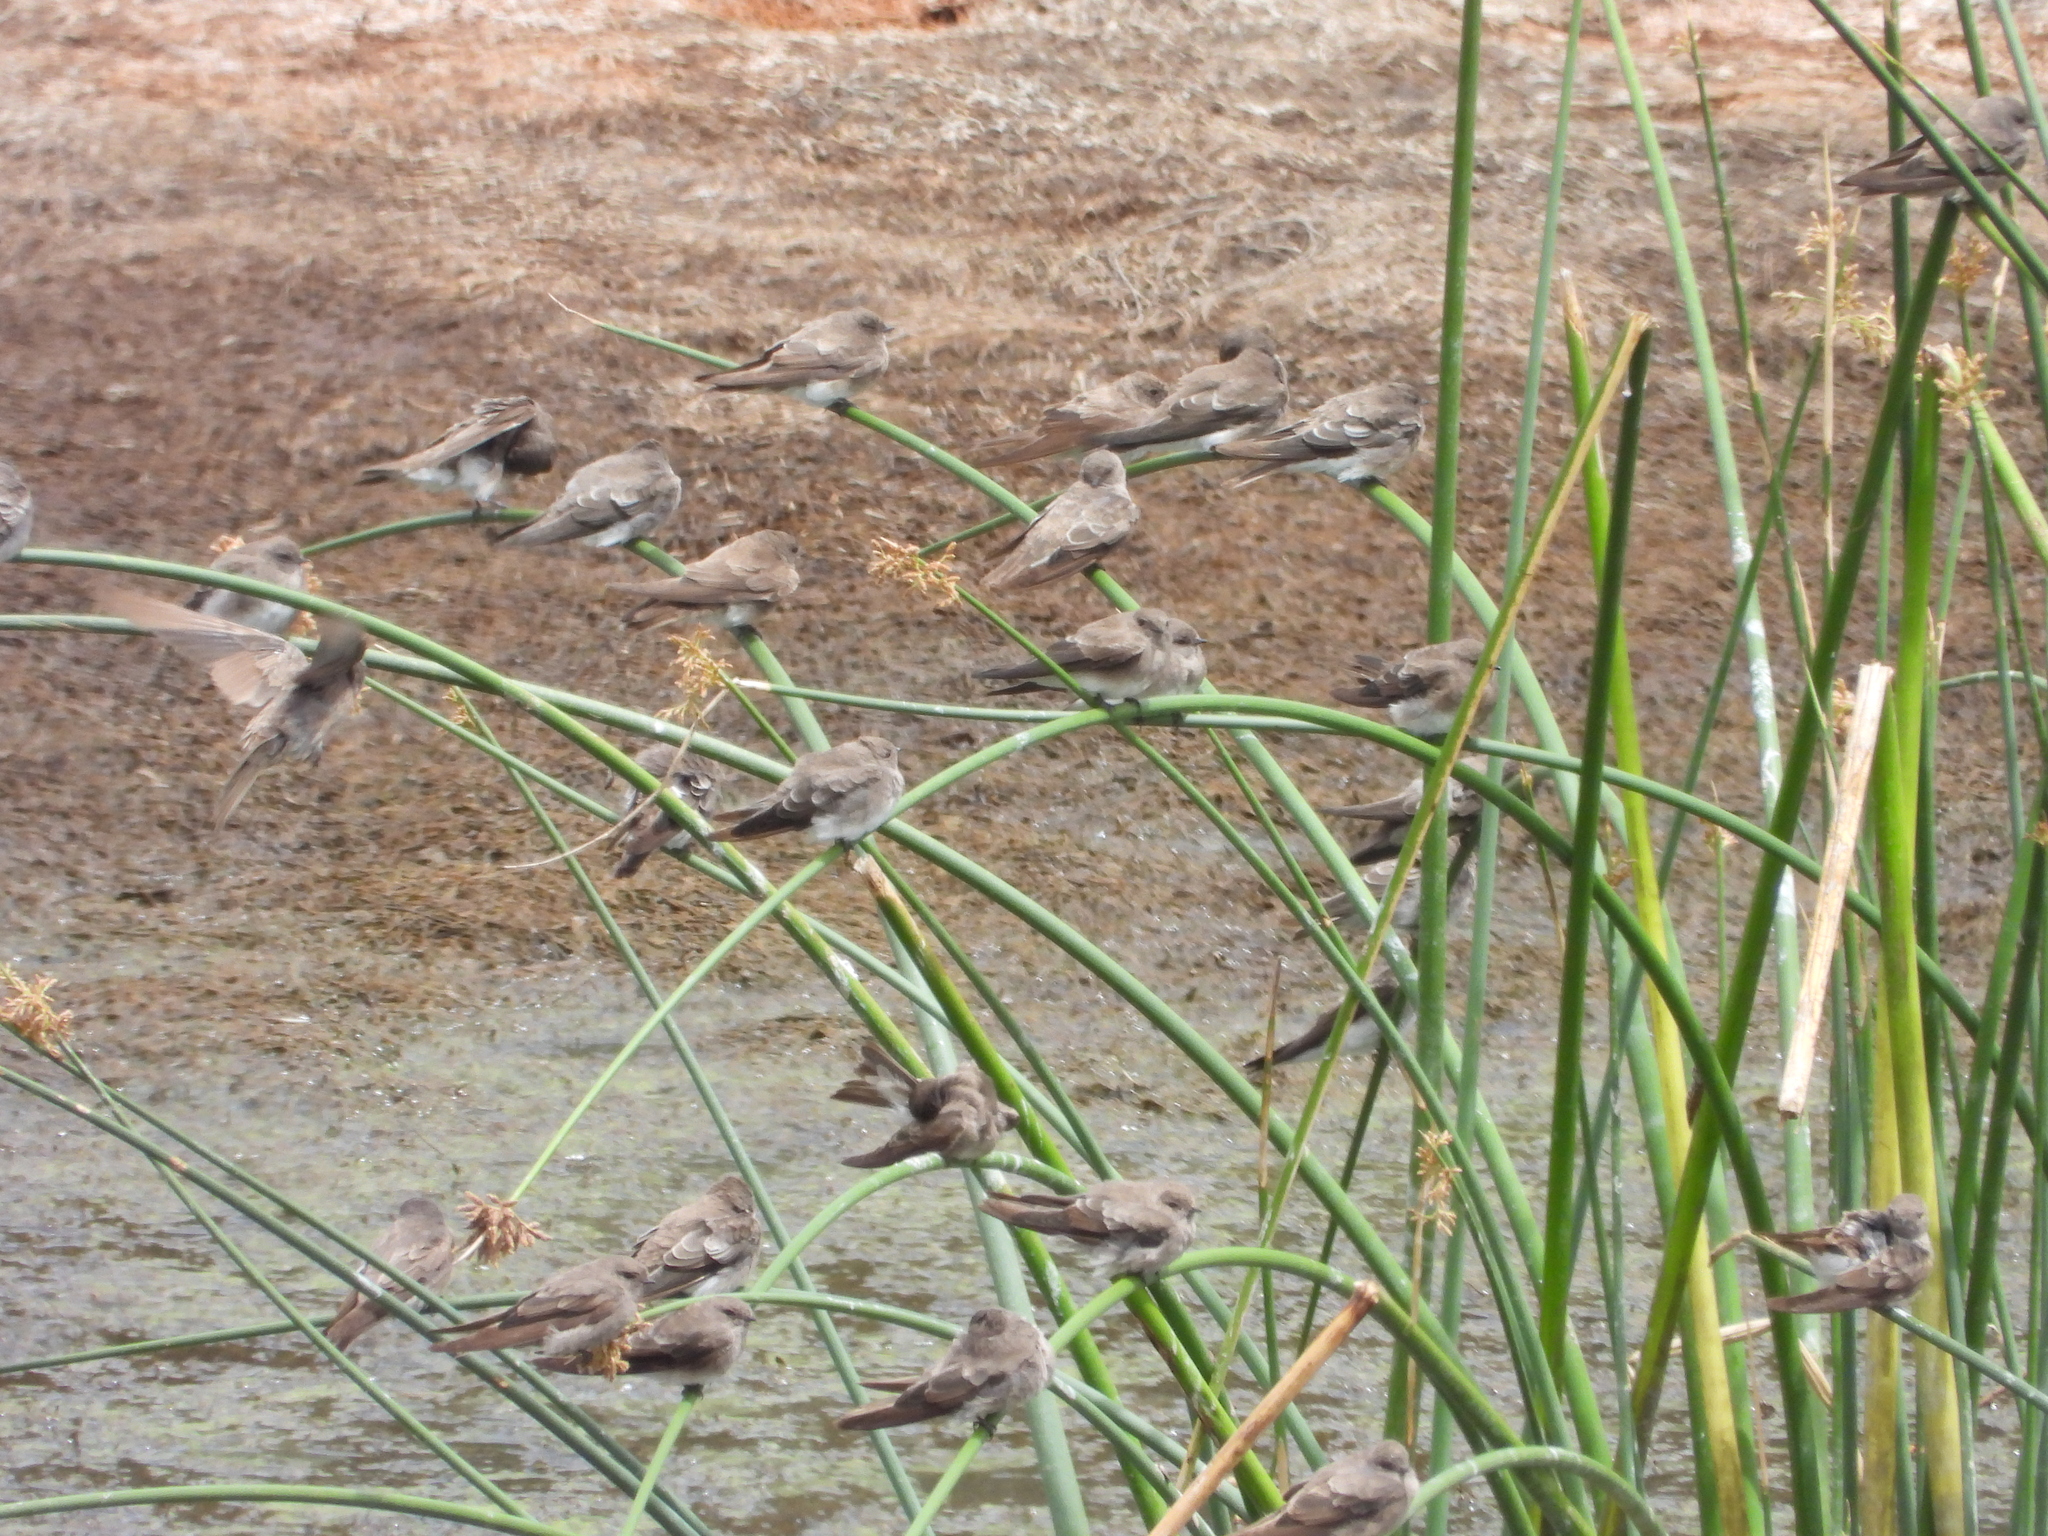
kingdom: Animalia
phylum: Chordata
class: Aves
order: Passeriformes
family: Hirundinidae
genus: Riparia
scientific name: Riparia paludicola
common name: Brown-throated martin
